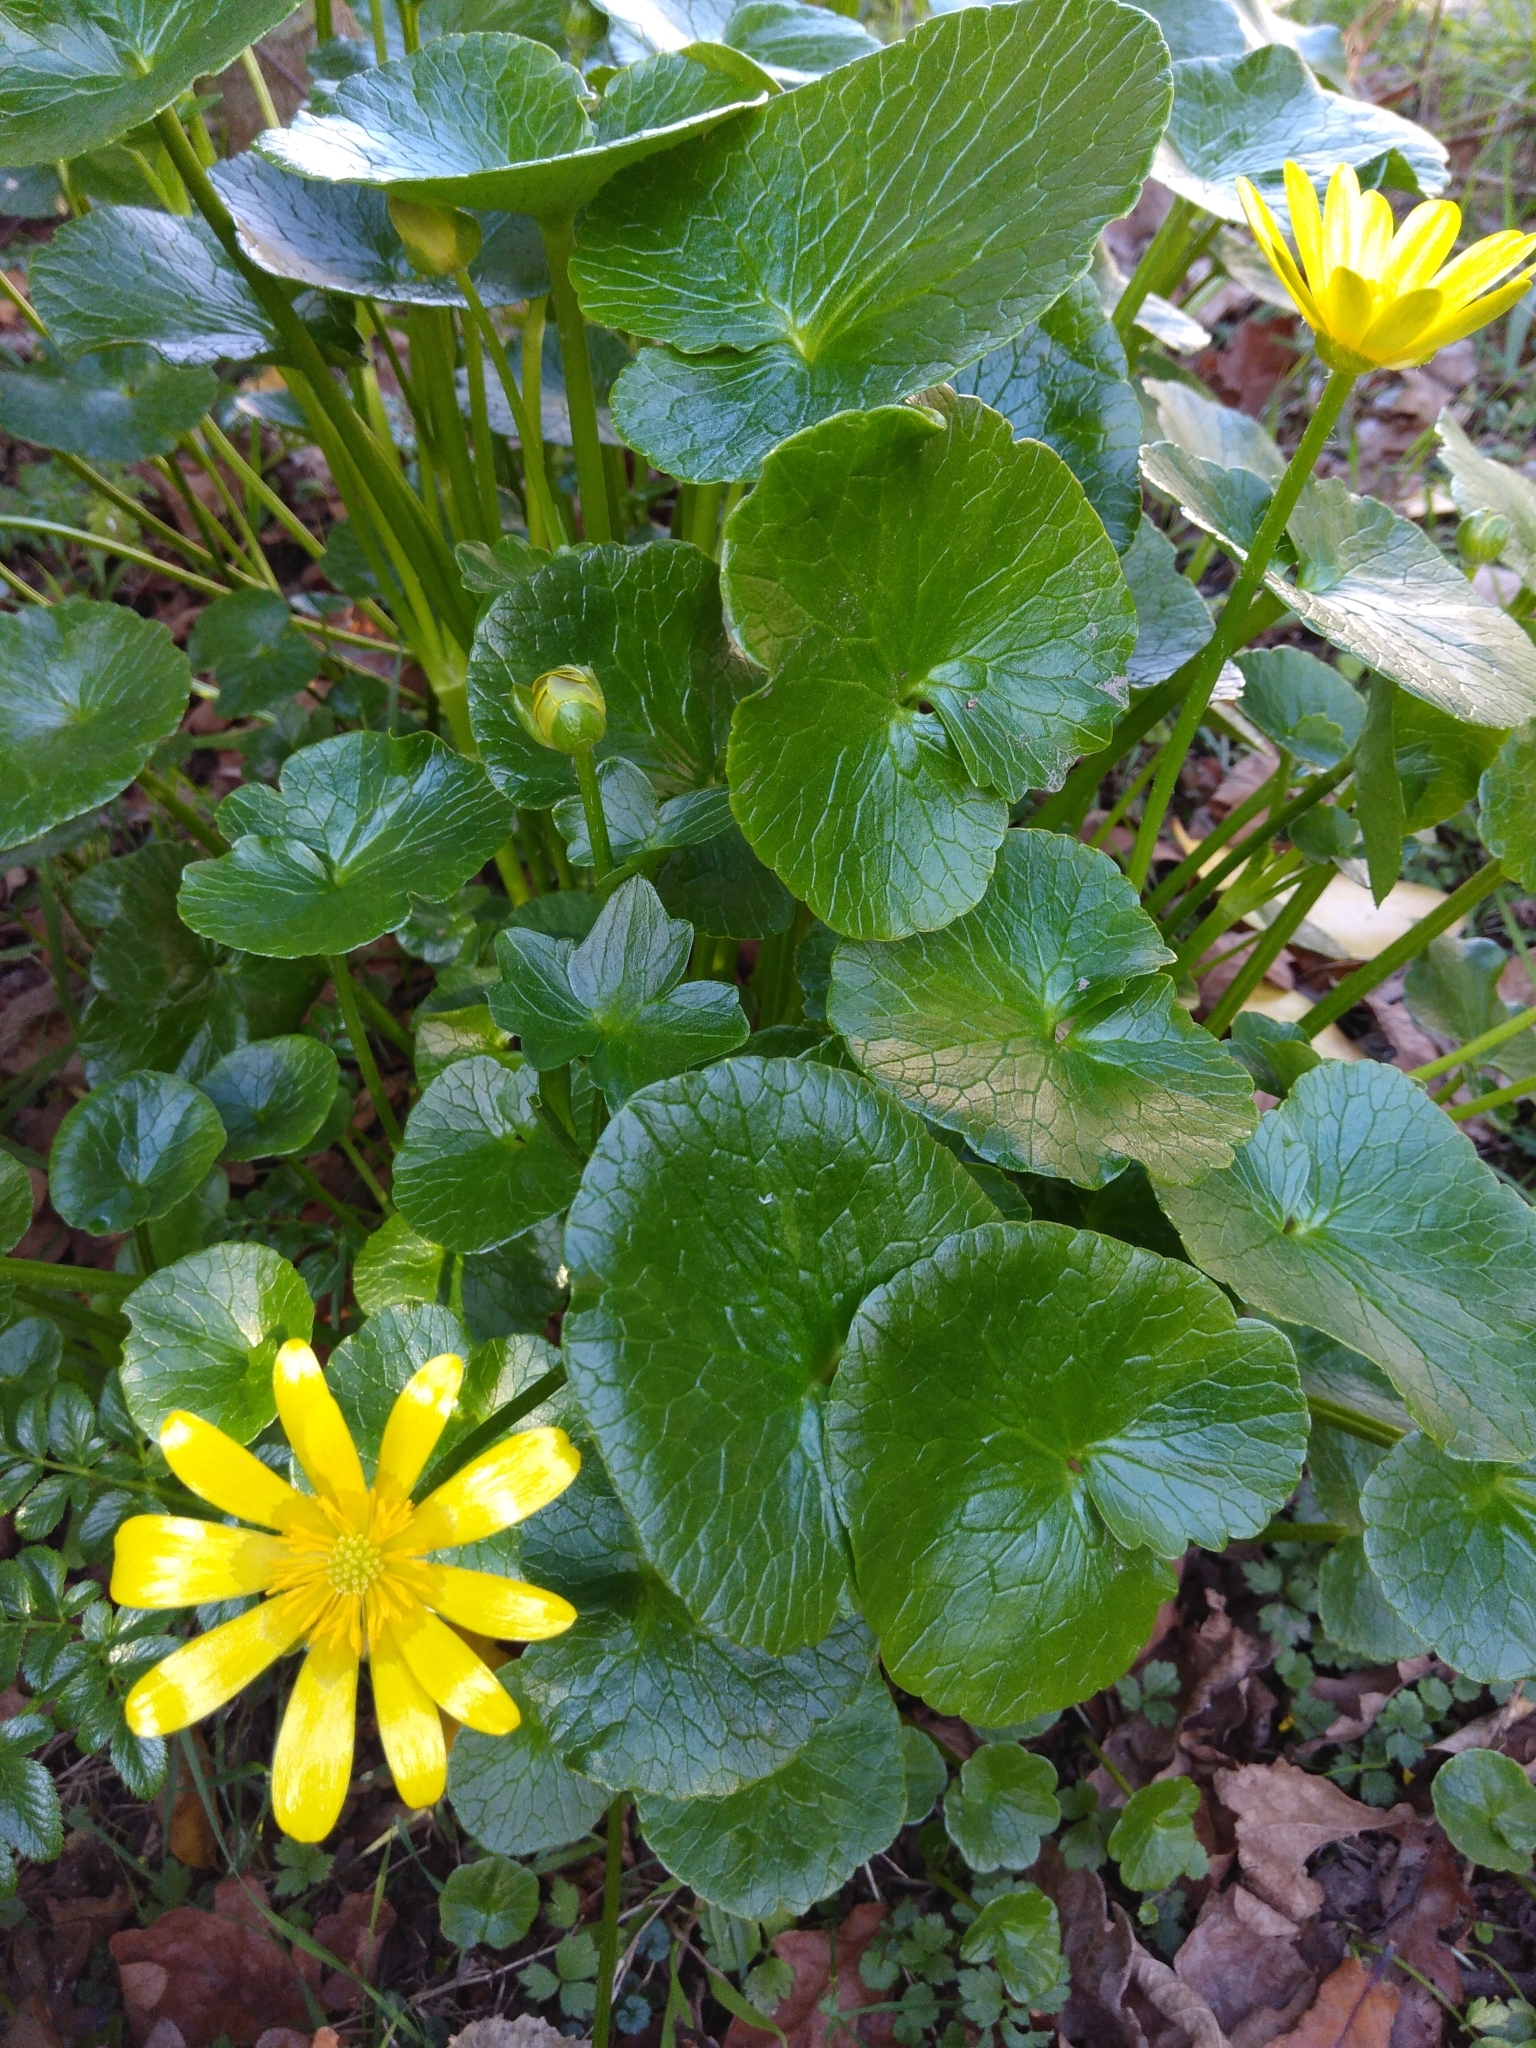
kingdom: Plantae
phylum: Tracheophyta
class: Magnoliopsida
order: Ranunculales
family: Ranunculaceae
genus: Ficaria
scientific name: Ficaria verna
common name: Lesser celandine
